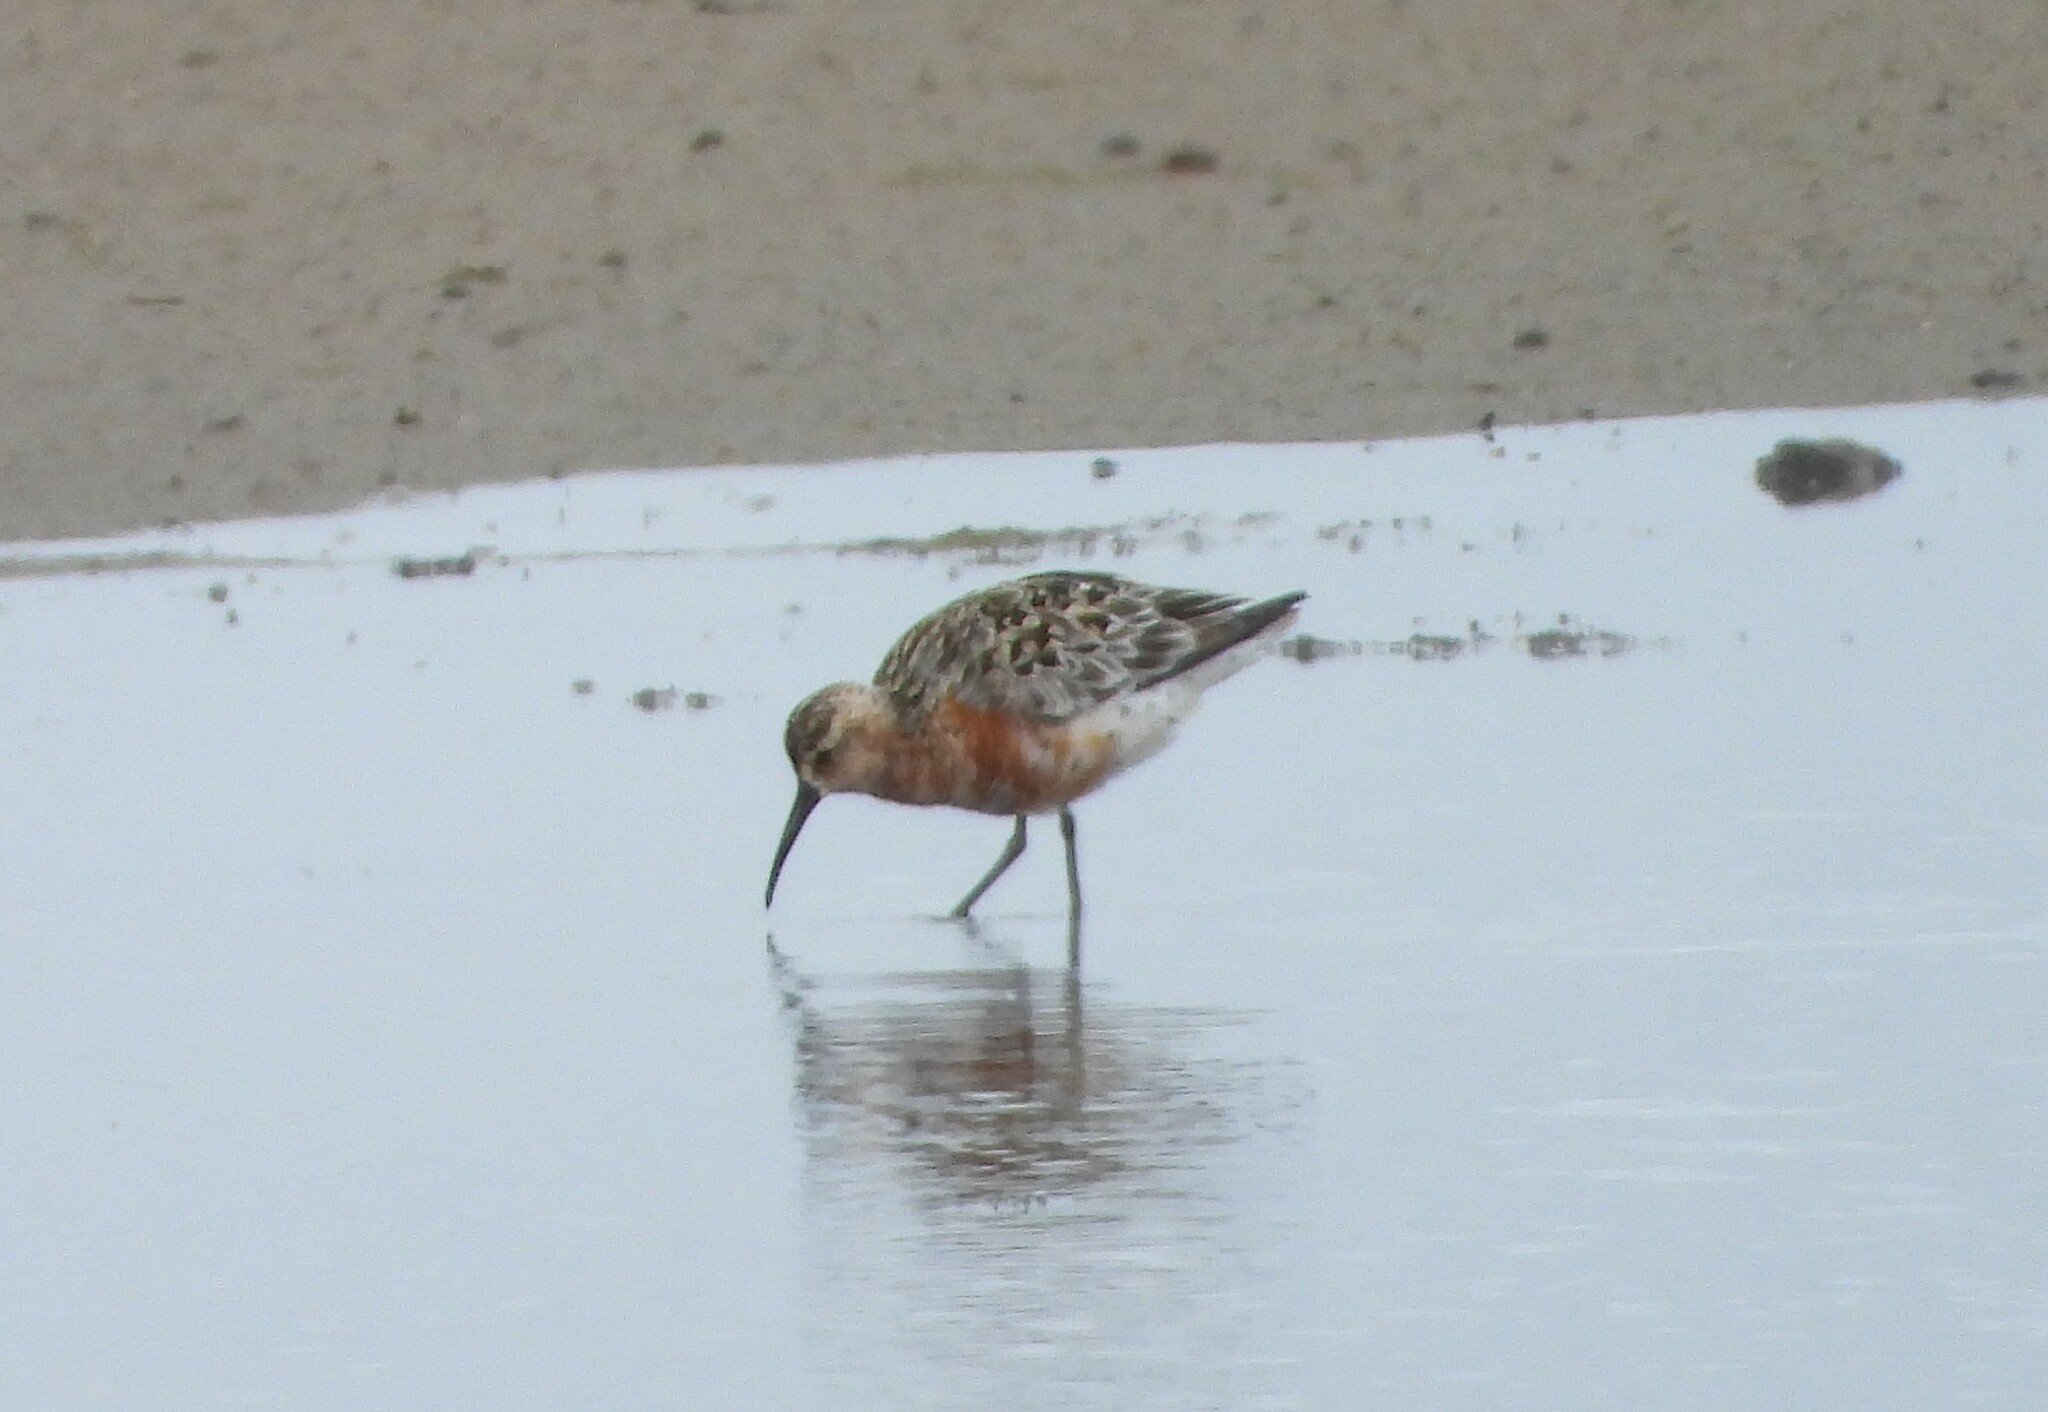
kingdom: Animalia
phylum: Chordata
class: Aves
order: Charadriiformes
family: Scolopacidae
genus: Calidris
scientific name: Calidris ferruginea
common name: Curlew sandpiper
